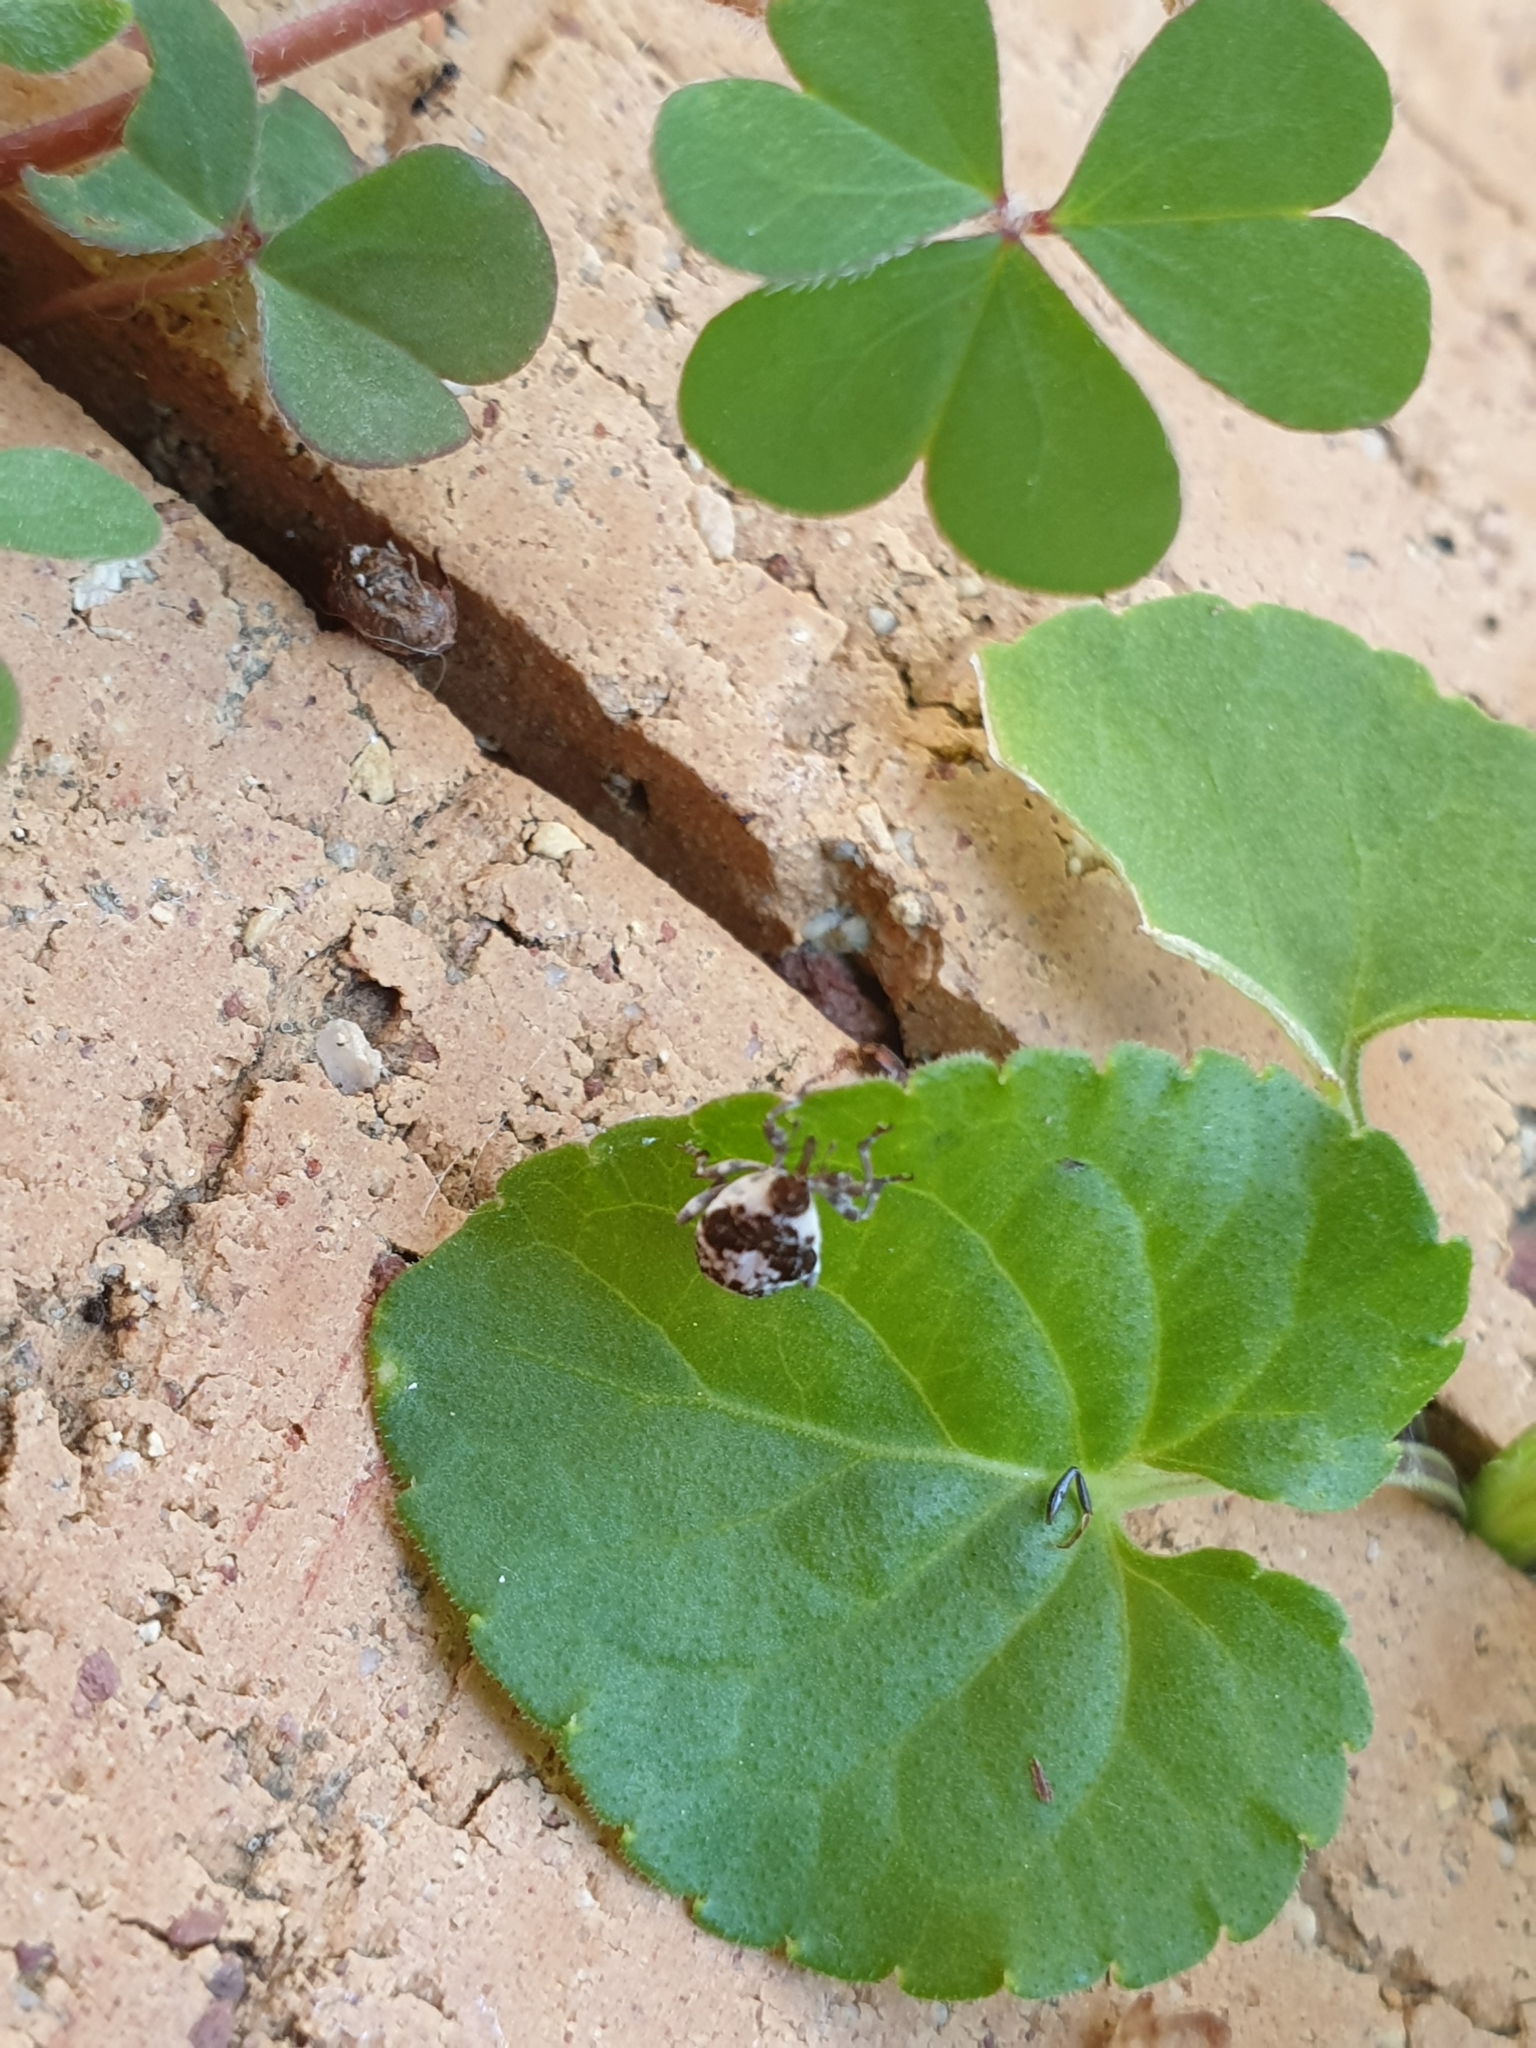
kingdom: Animalia
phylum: Arthropoda
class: Insecta
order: Coleoptera
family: Curculionidae
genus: Ceuthorrhynchus
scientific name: Ceuthorrhynchus larvatus
